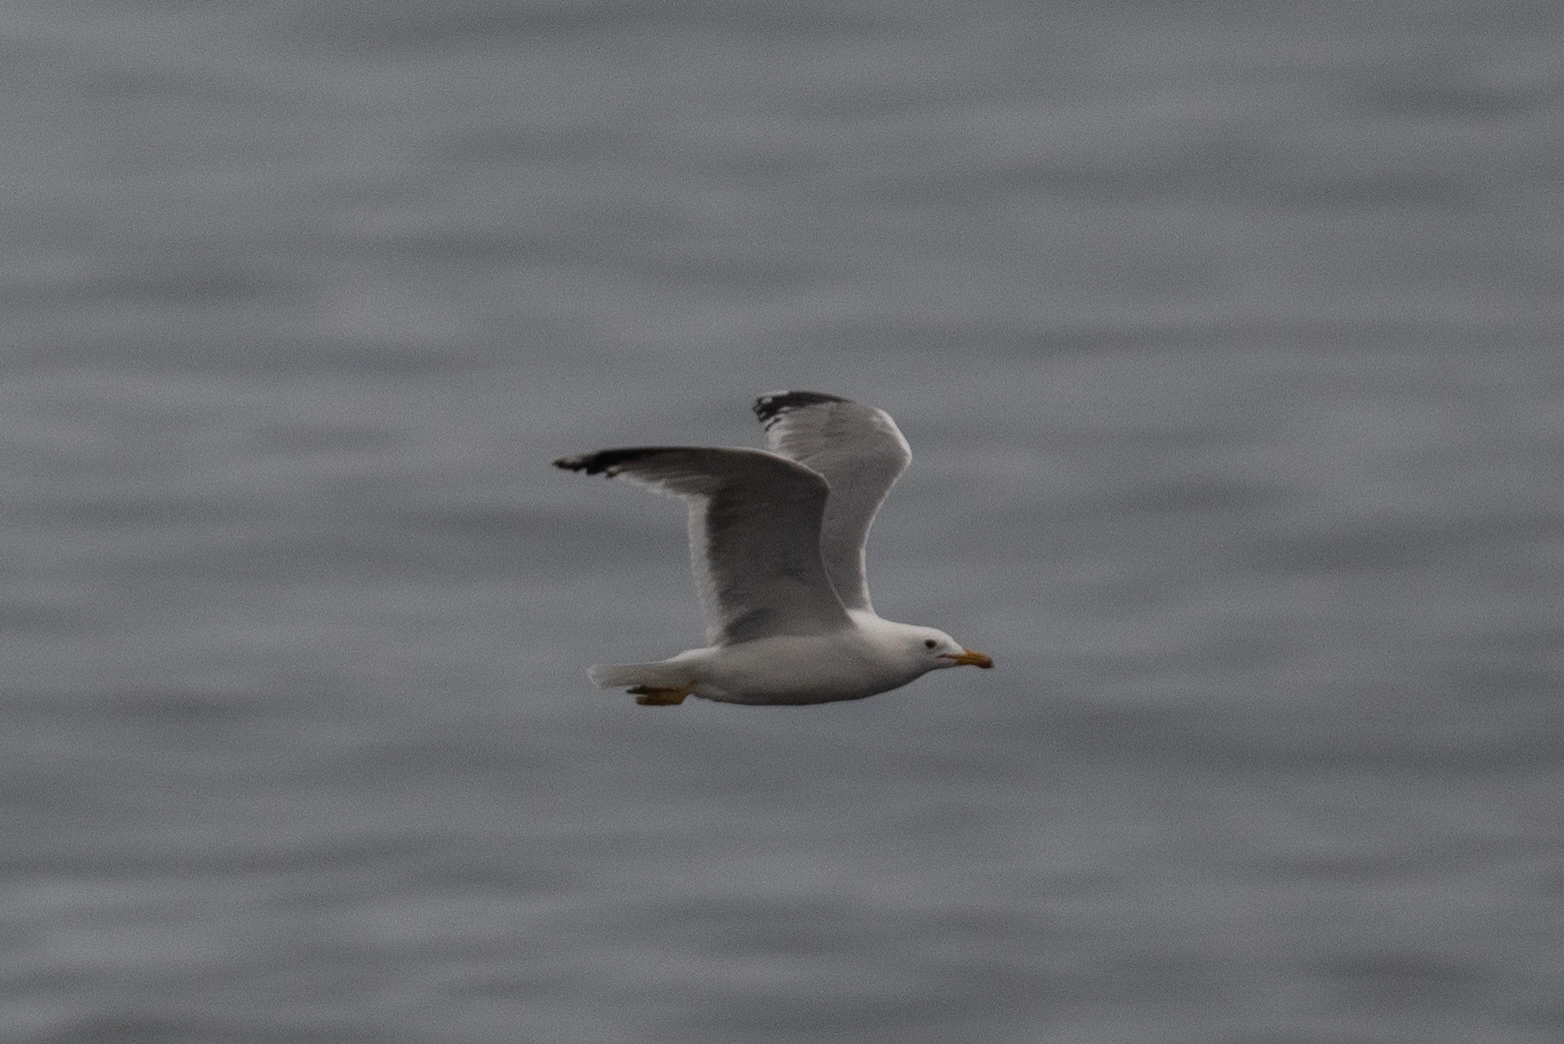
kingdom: Animalia
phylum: Chordata
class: Aves
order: Charadriiformes
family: Laridae
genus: Larus
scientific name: Larus californicus
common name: California gull
